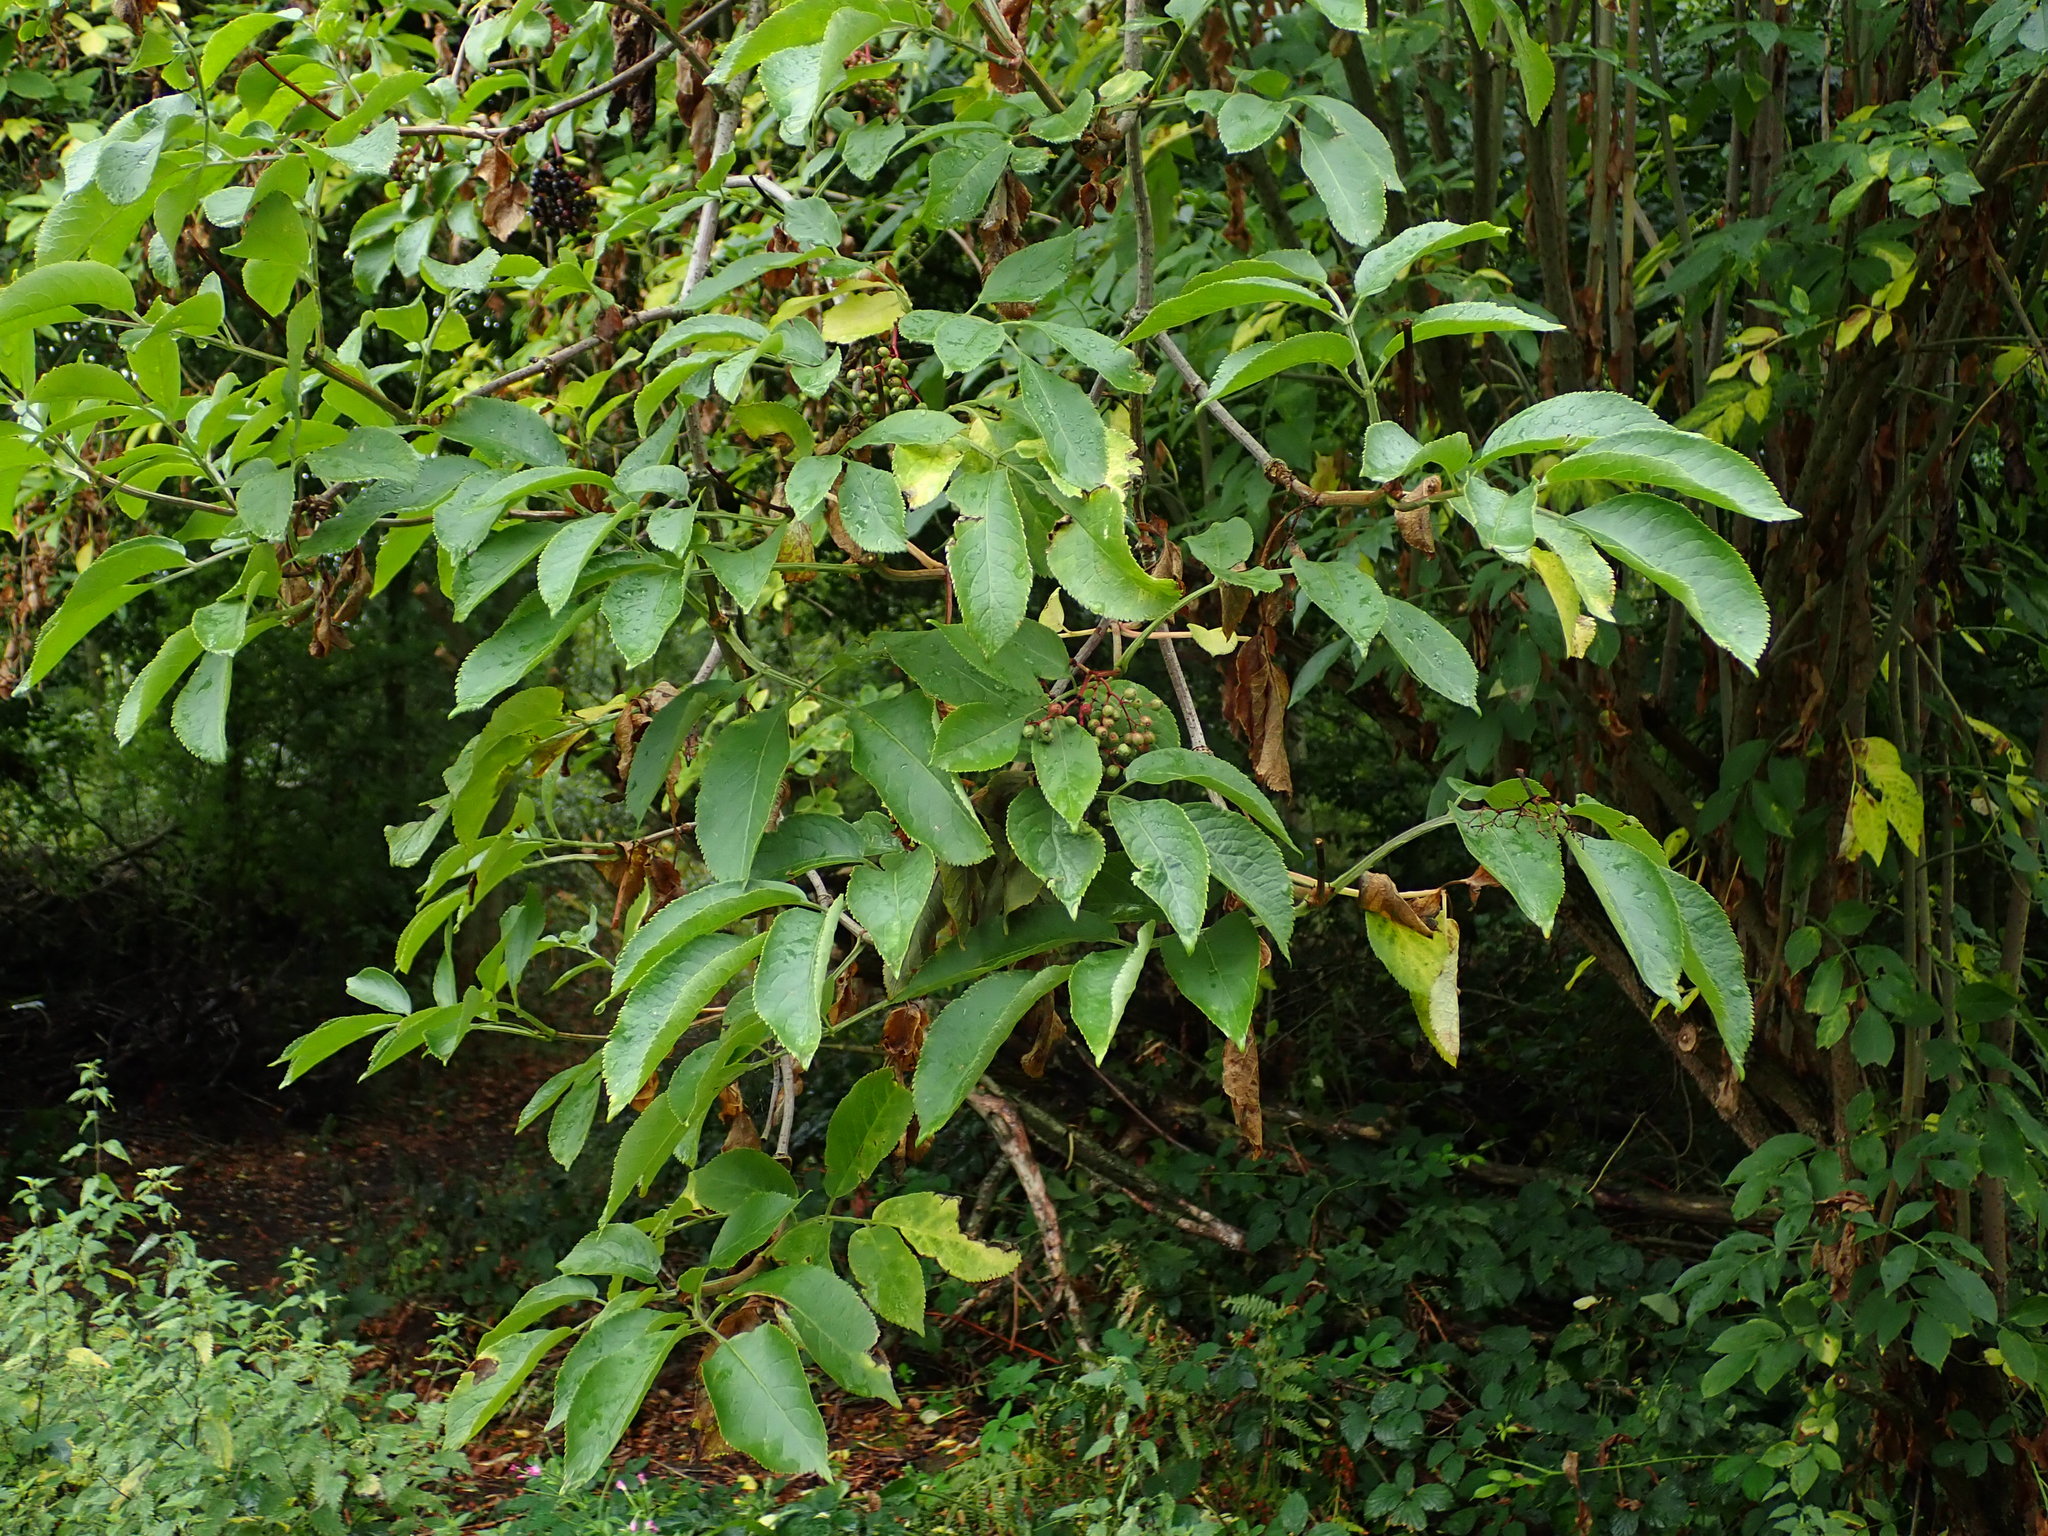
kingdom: Plantae
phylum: Tracheophyta
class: Magnoliopsida
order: Dipsacales
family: Viburnaceae
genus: Sambucus
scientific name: Sambucus nigra
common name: Elder
